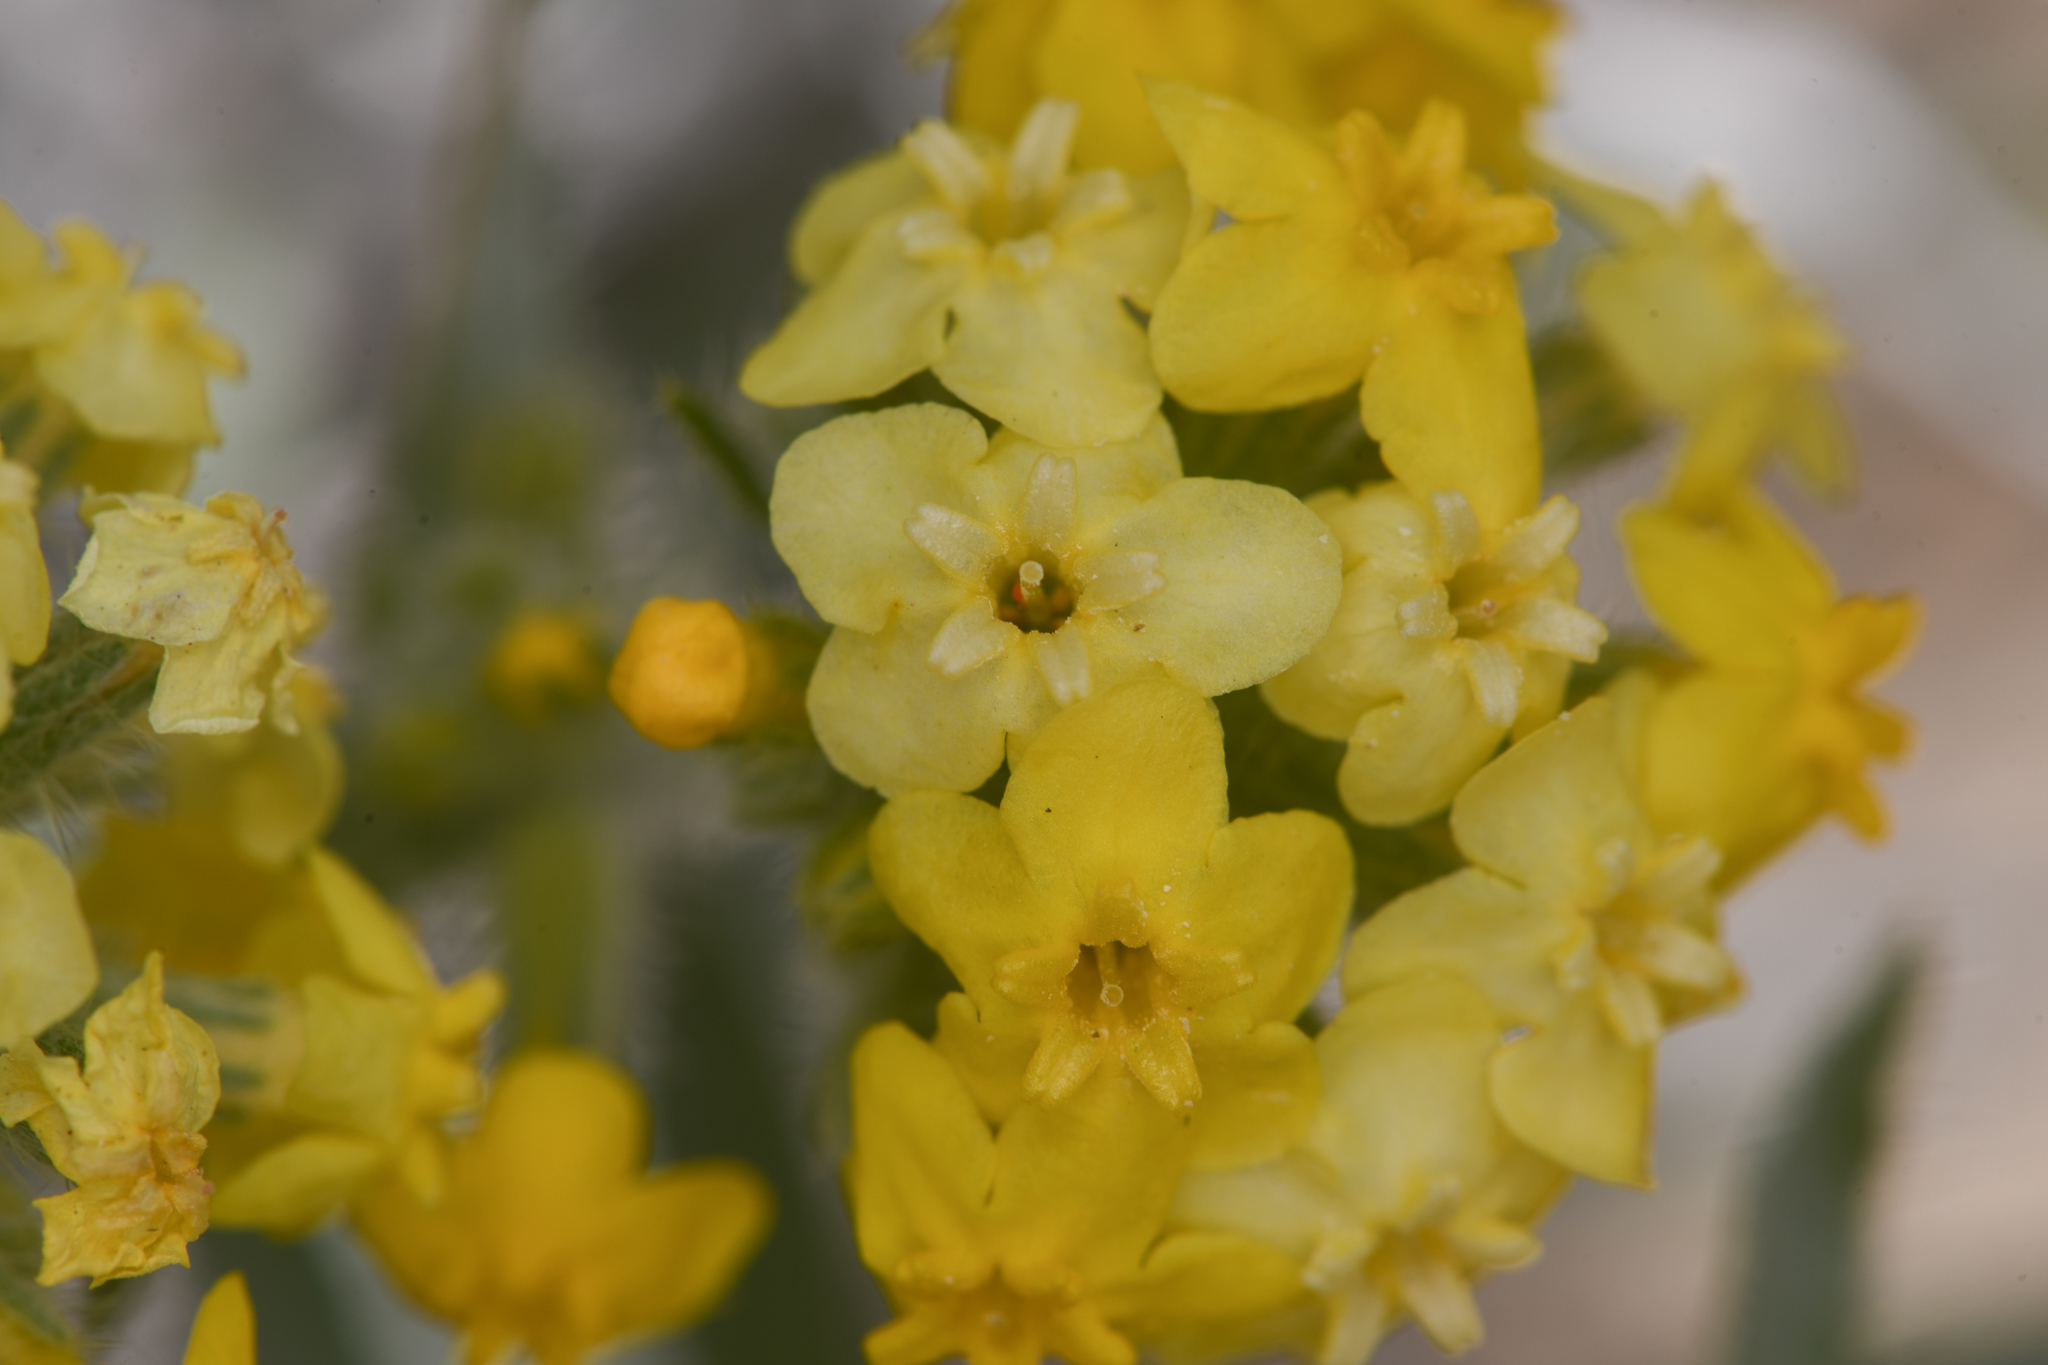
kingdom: Plantae
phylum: Tracheophyta
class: Magnoliopsida
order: Boraginales
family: Boraginaceae
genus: Oreocarya
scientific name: Oreocarya confertiflora
